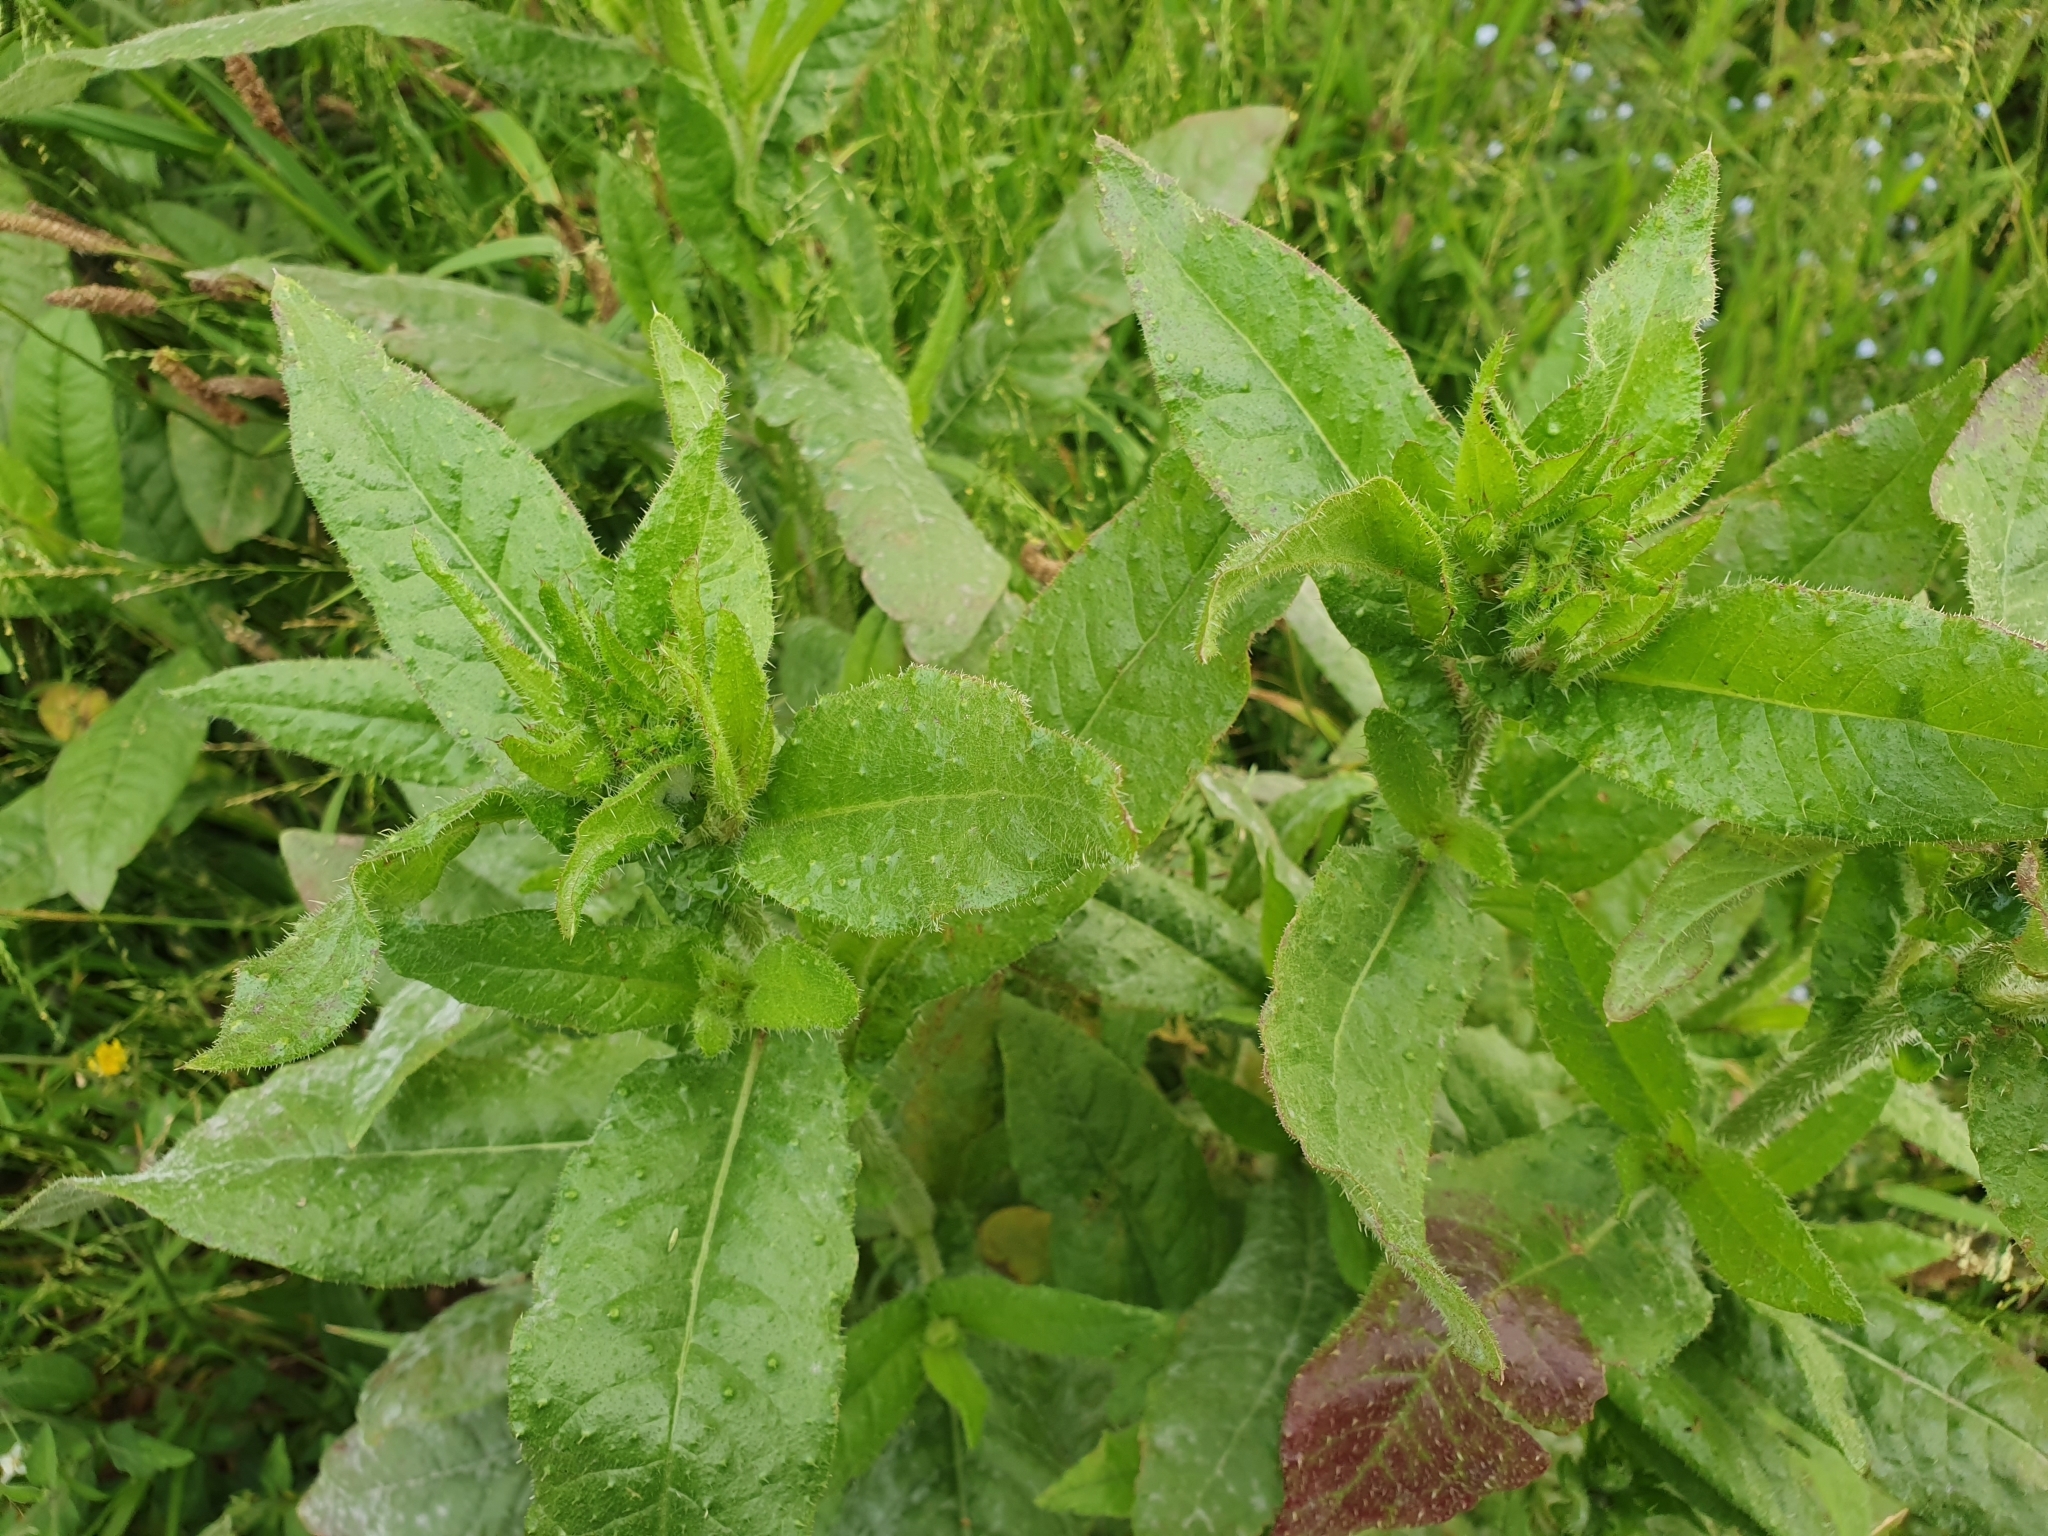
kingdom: Plantae
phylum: Tracheophyta
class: Magnoliopsida
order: Asterales
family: Asteraceae
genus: Helminthotheca
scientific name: Helminthotheca echioides
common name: Ox-tongue
